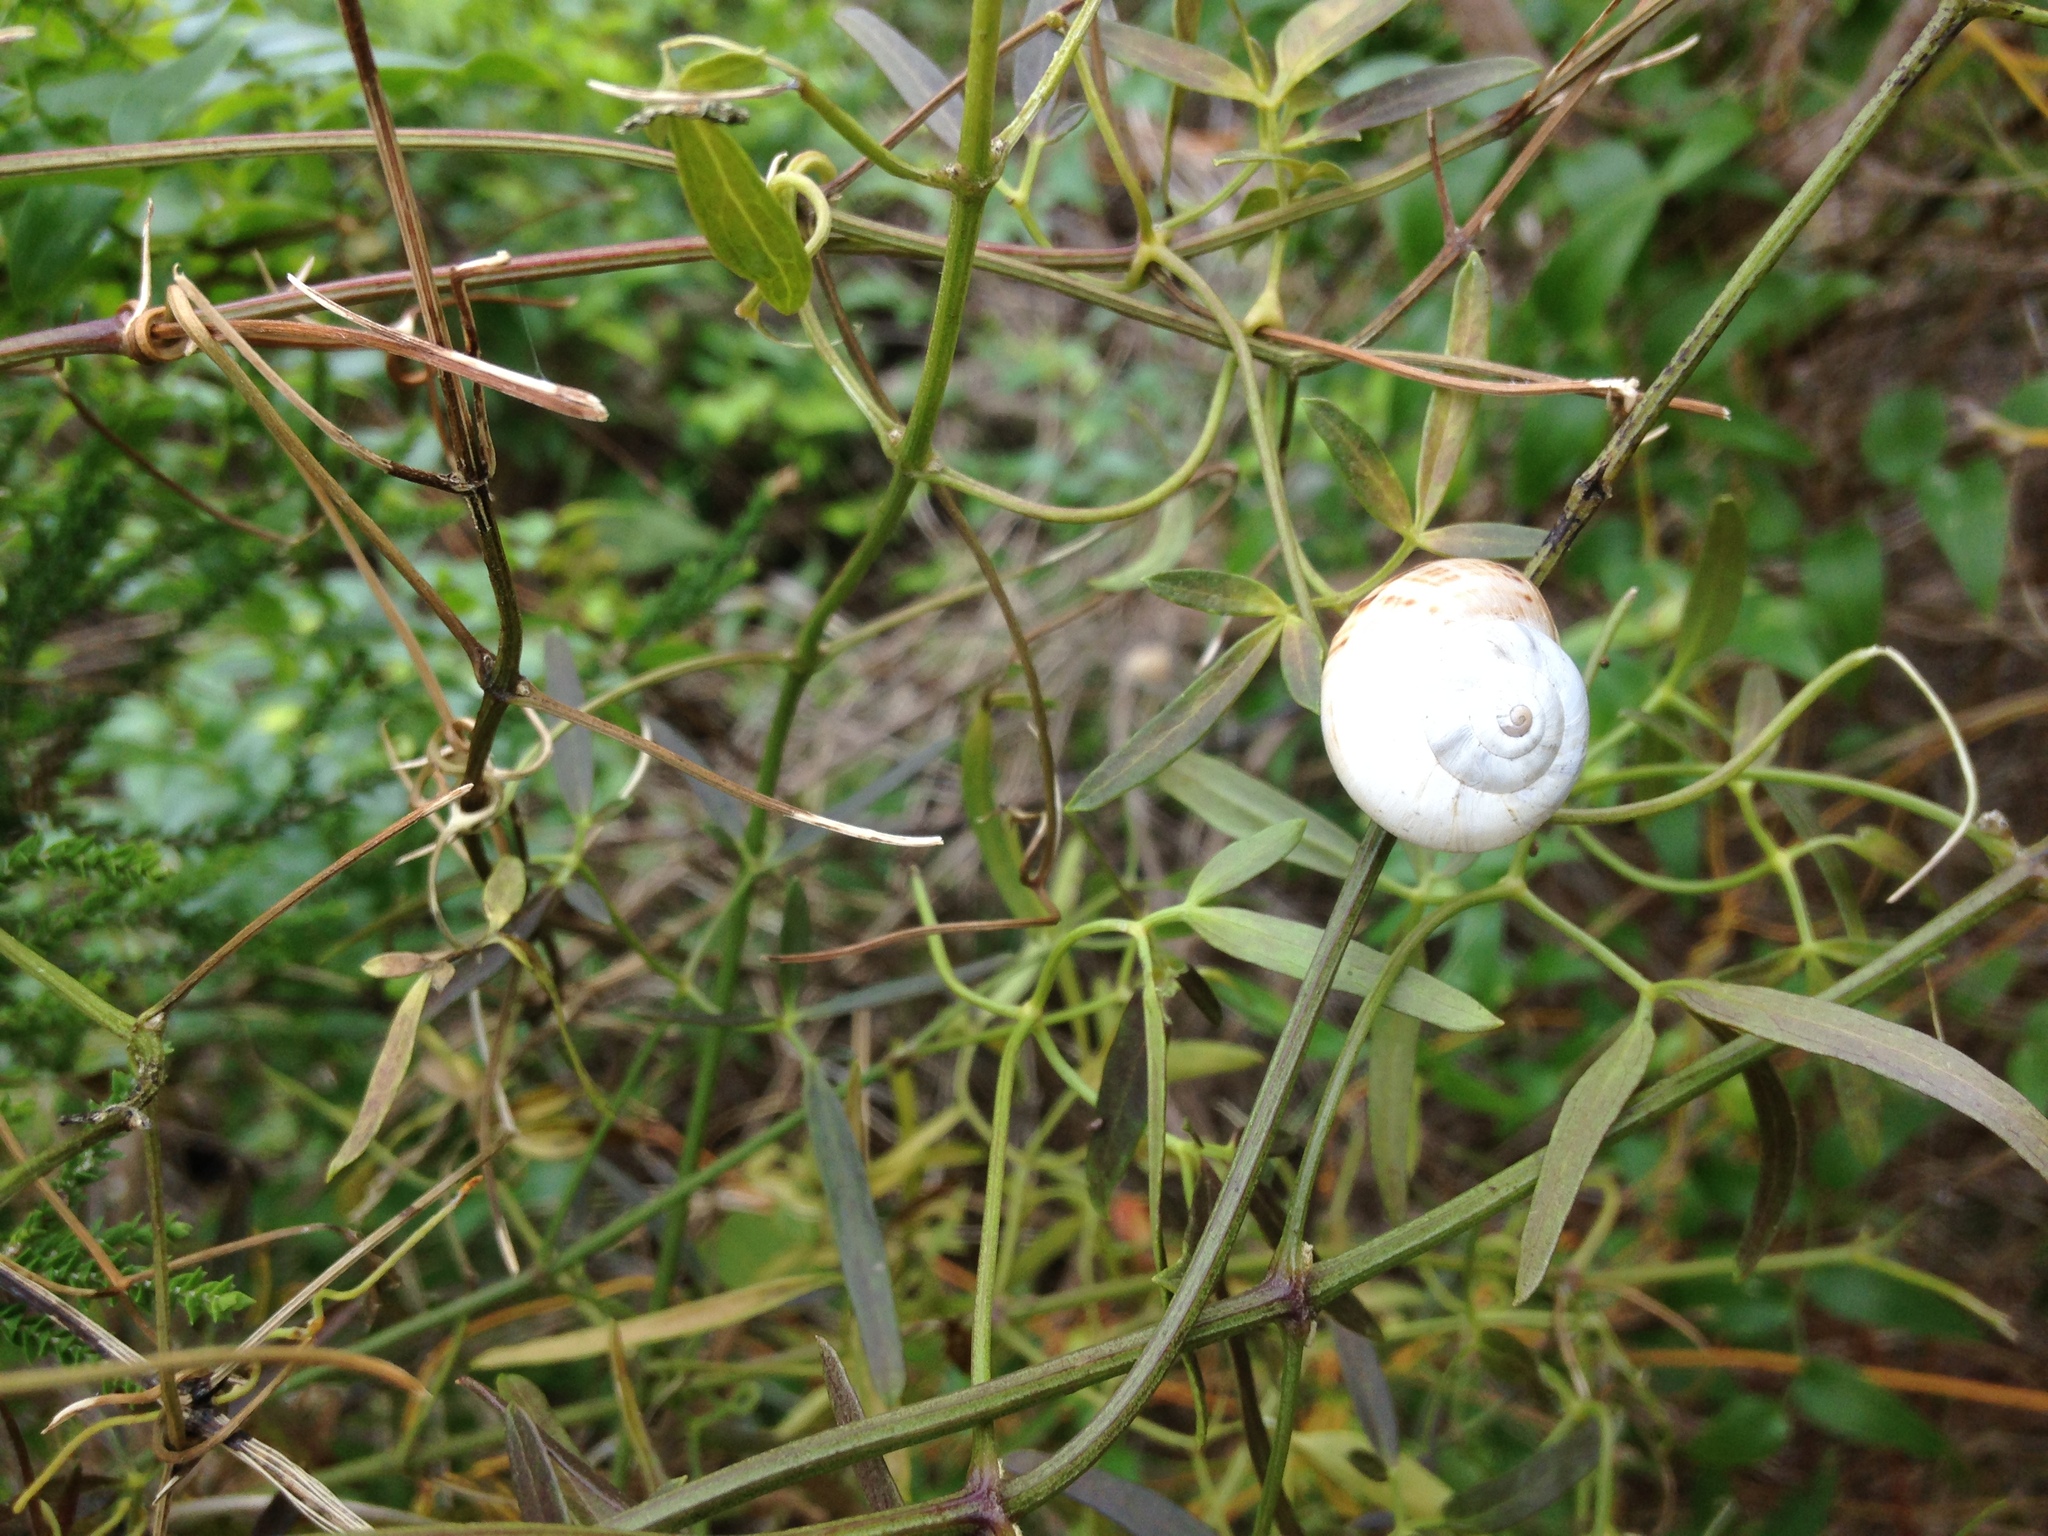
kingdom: Animalia
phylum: Mollusca
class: Gastropoda
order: Stylommatophora
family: Helicidae
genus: Theba
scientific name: Theba pisana
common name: White snail
